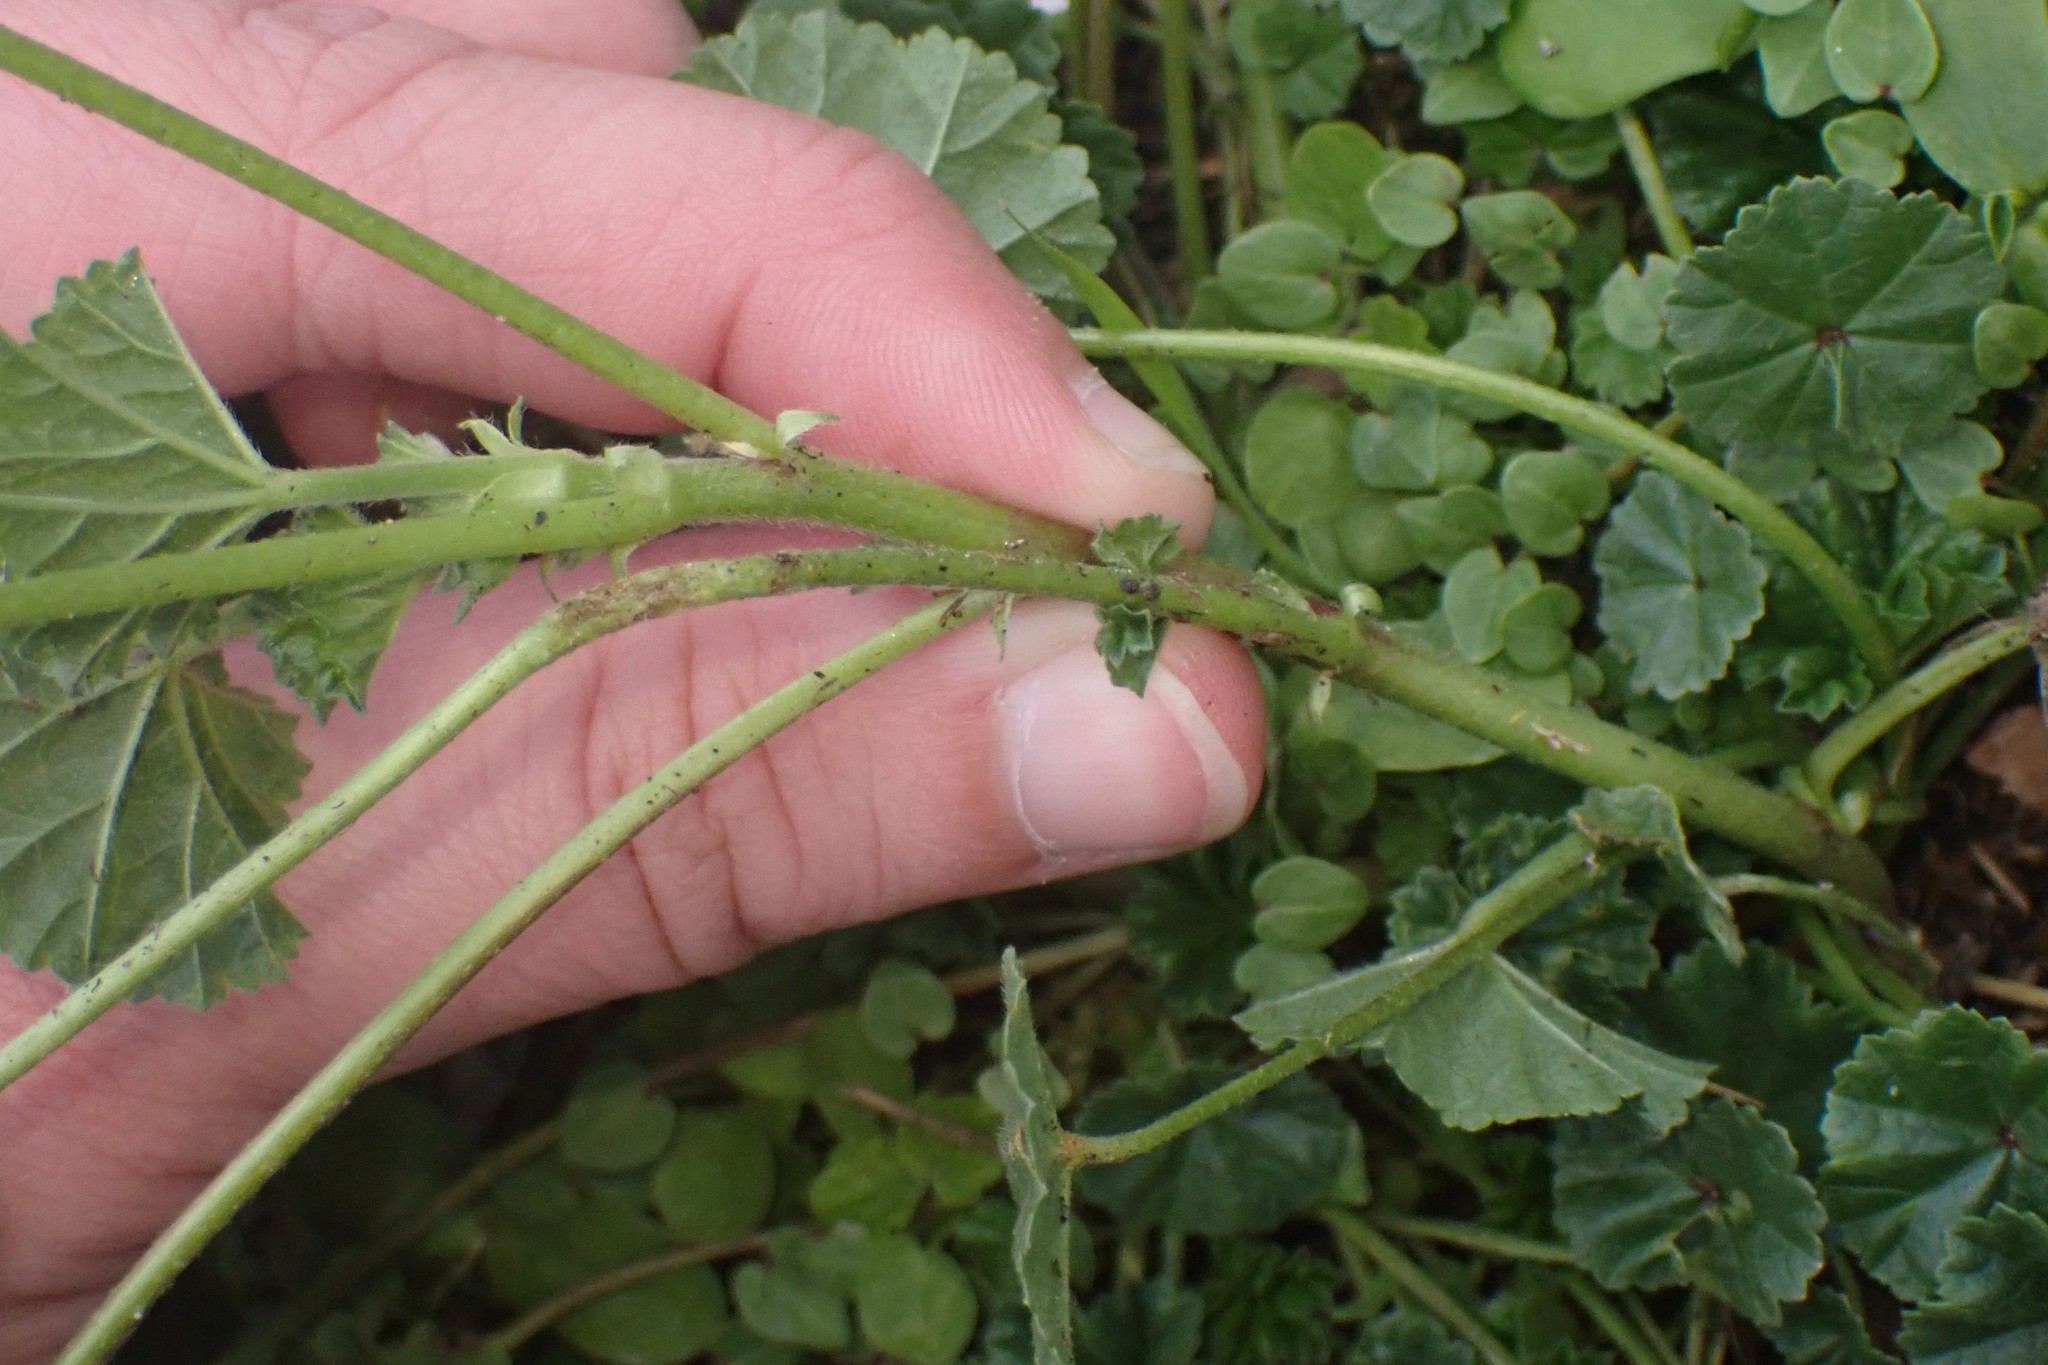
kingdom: Plantae
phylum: Tracheophyta
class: Magnoliopsida
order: Malvales
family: Malvaceae
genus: Malva
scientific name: Malva neglecta
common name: Common mallow
